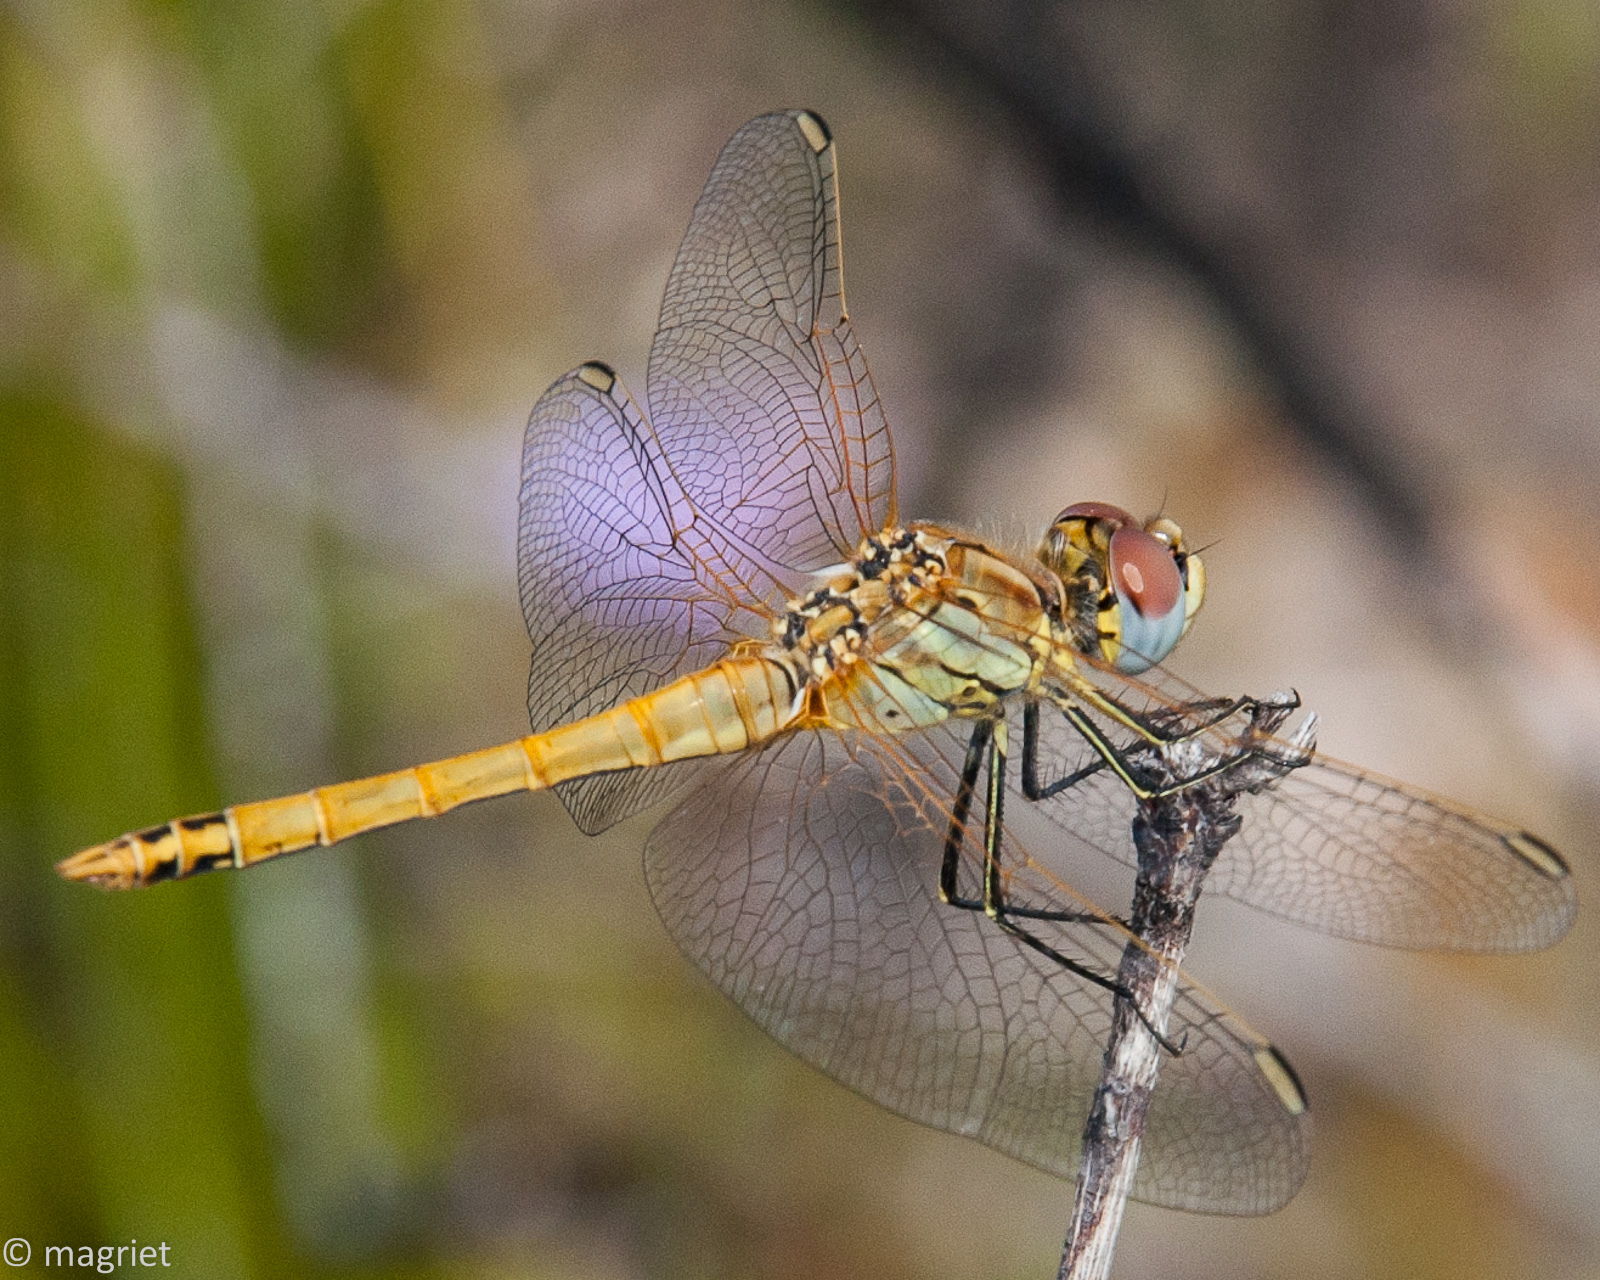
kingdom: Animalia
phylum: Arthropoda
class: Insecta
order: Odonata
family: Libellulidae
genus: Sympetrum
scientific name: Sympetrum fonscolombii
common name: Red-veined darter
